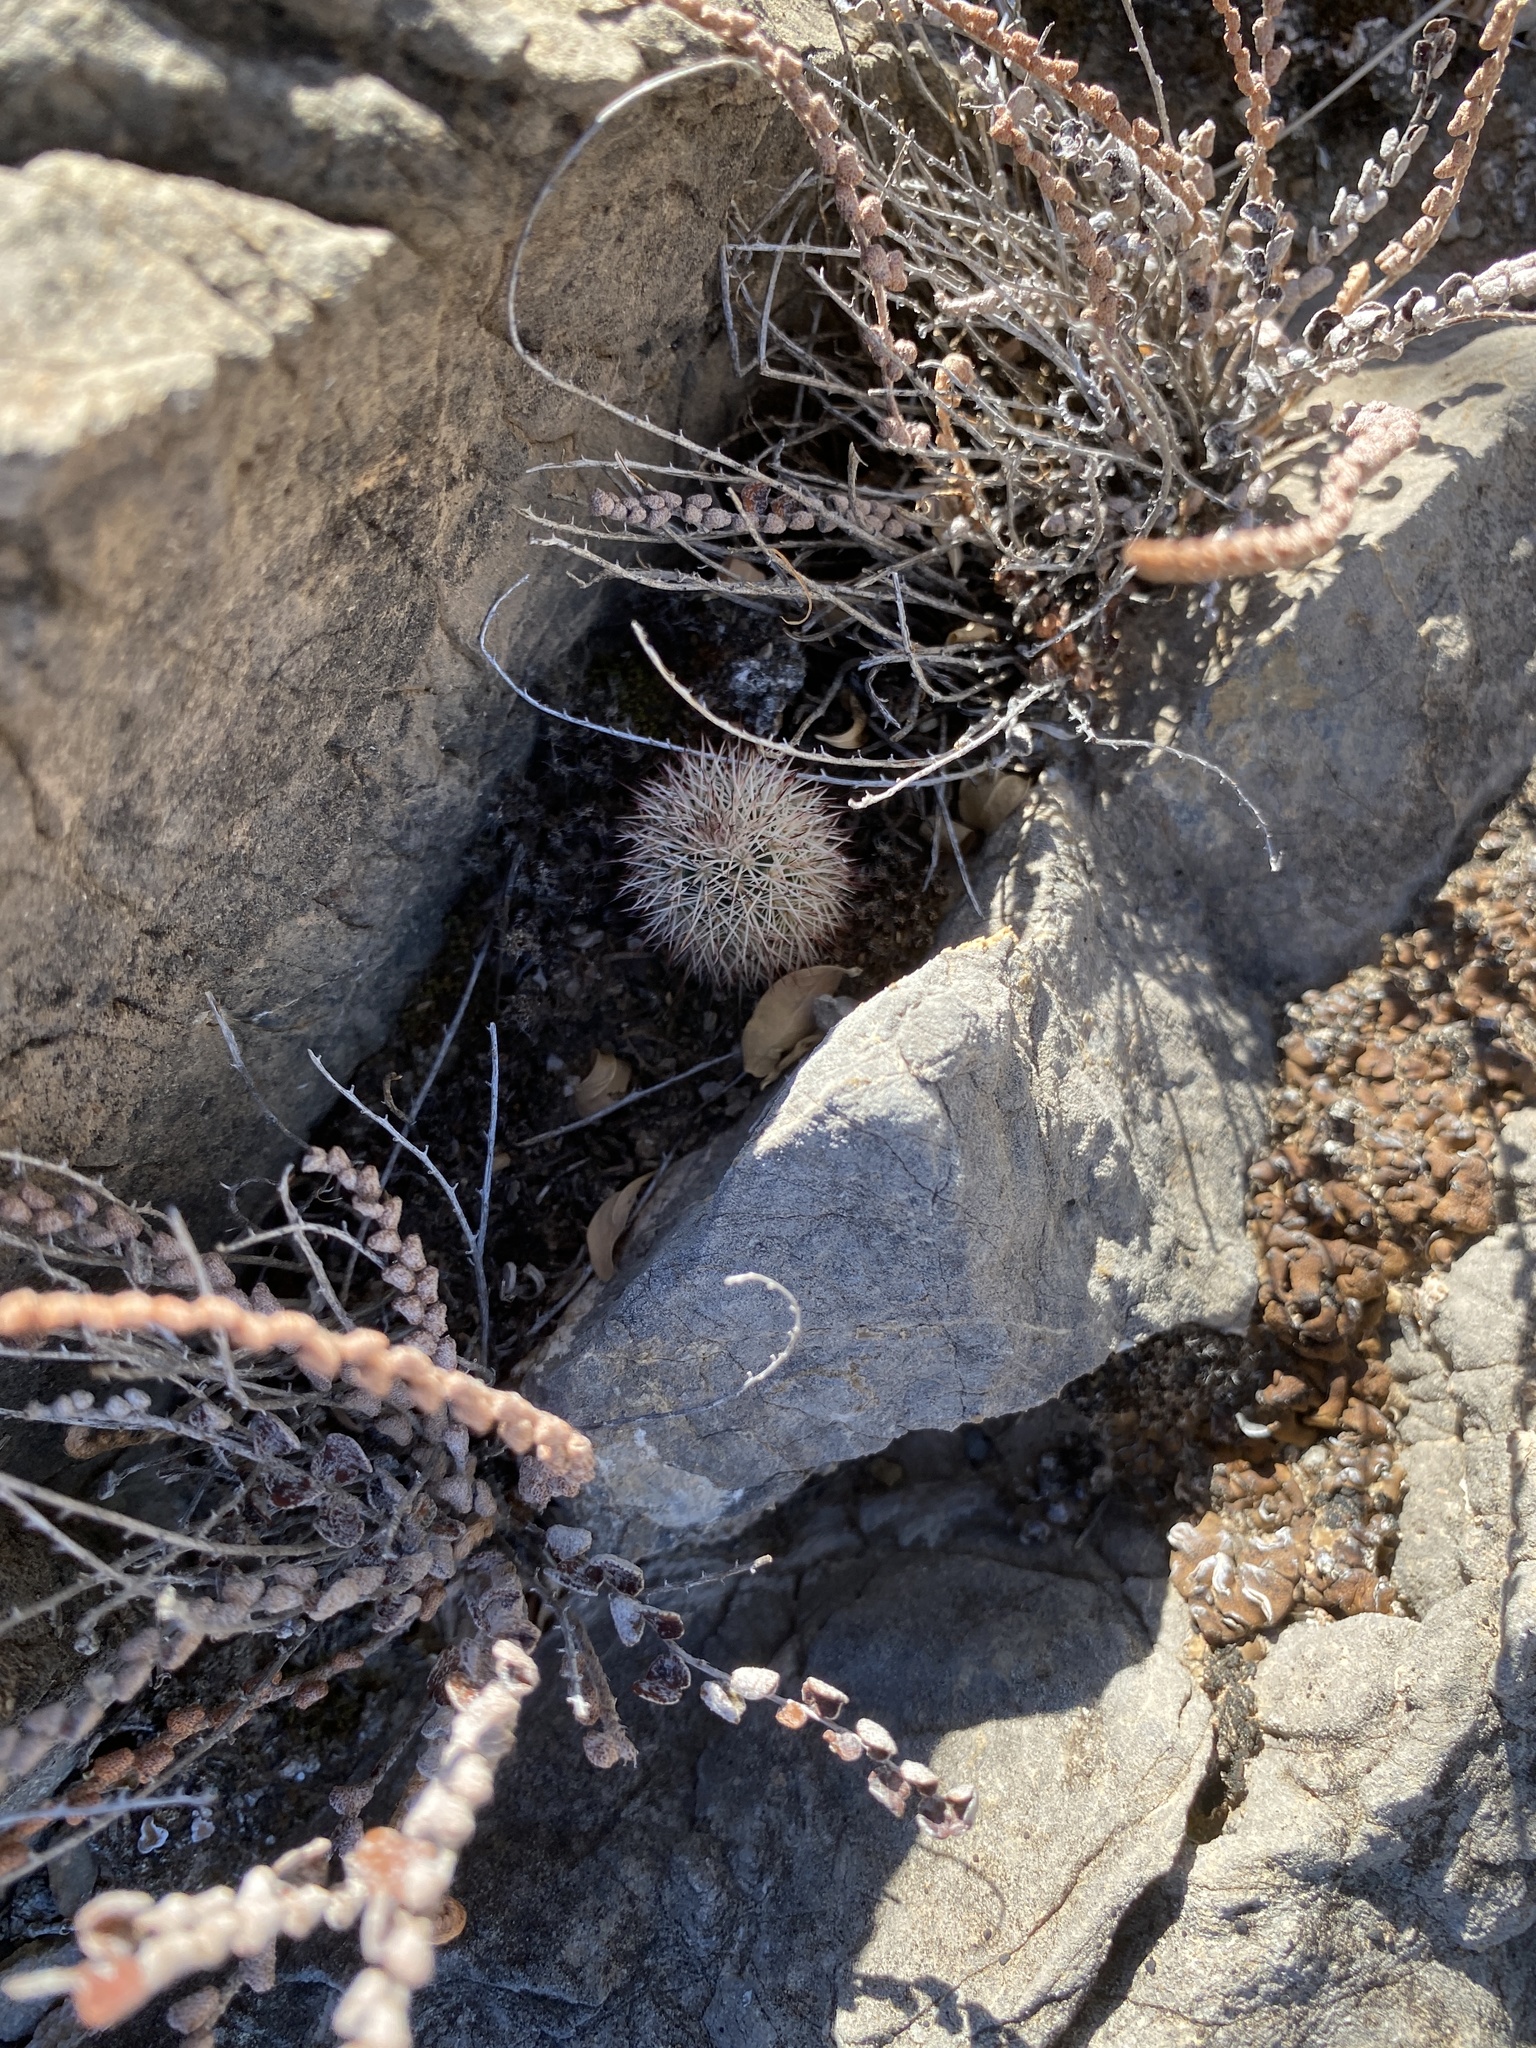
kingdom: Plantae
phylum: Tracheophyta
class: Magnoliopsida
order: Caryophyllales
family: Cactaceae
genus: Echinocereus
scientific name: Echinocereus dasyacanthus
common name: Spiny hedgehog cactus
